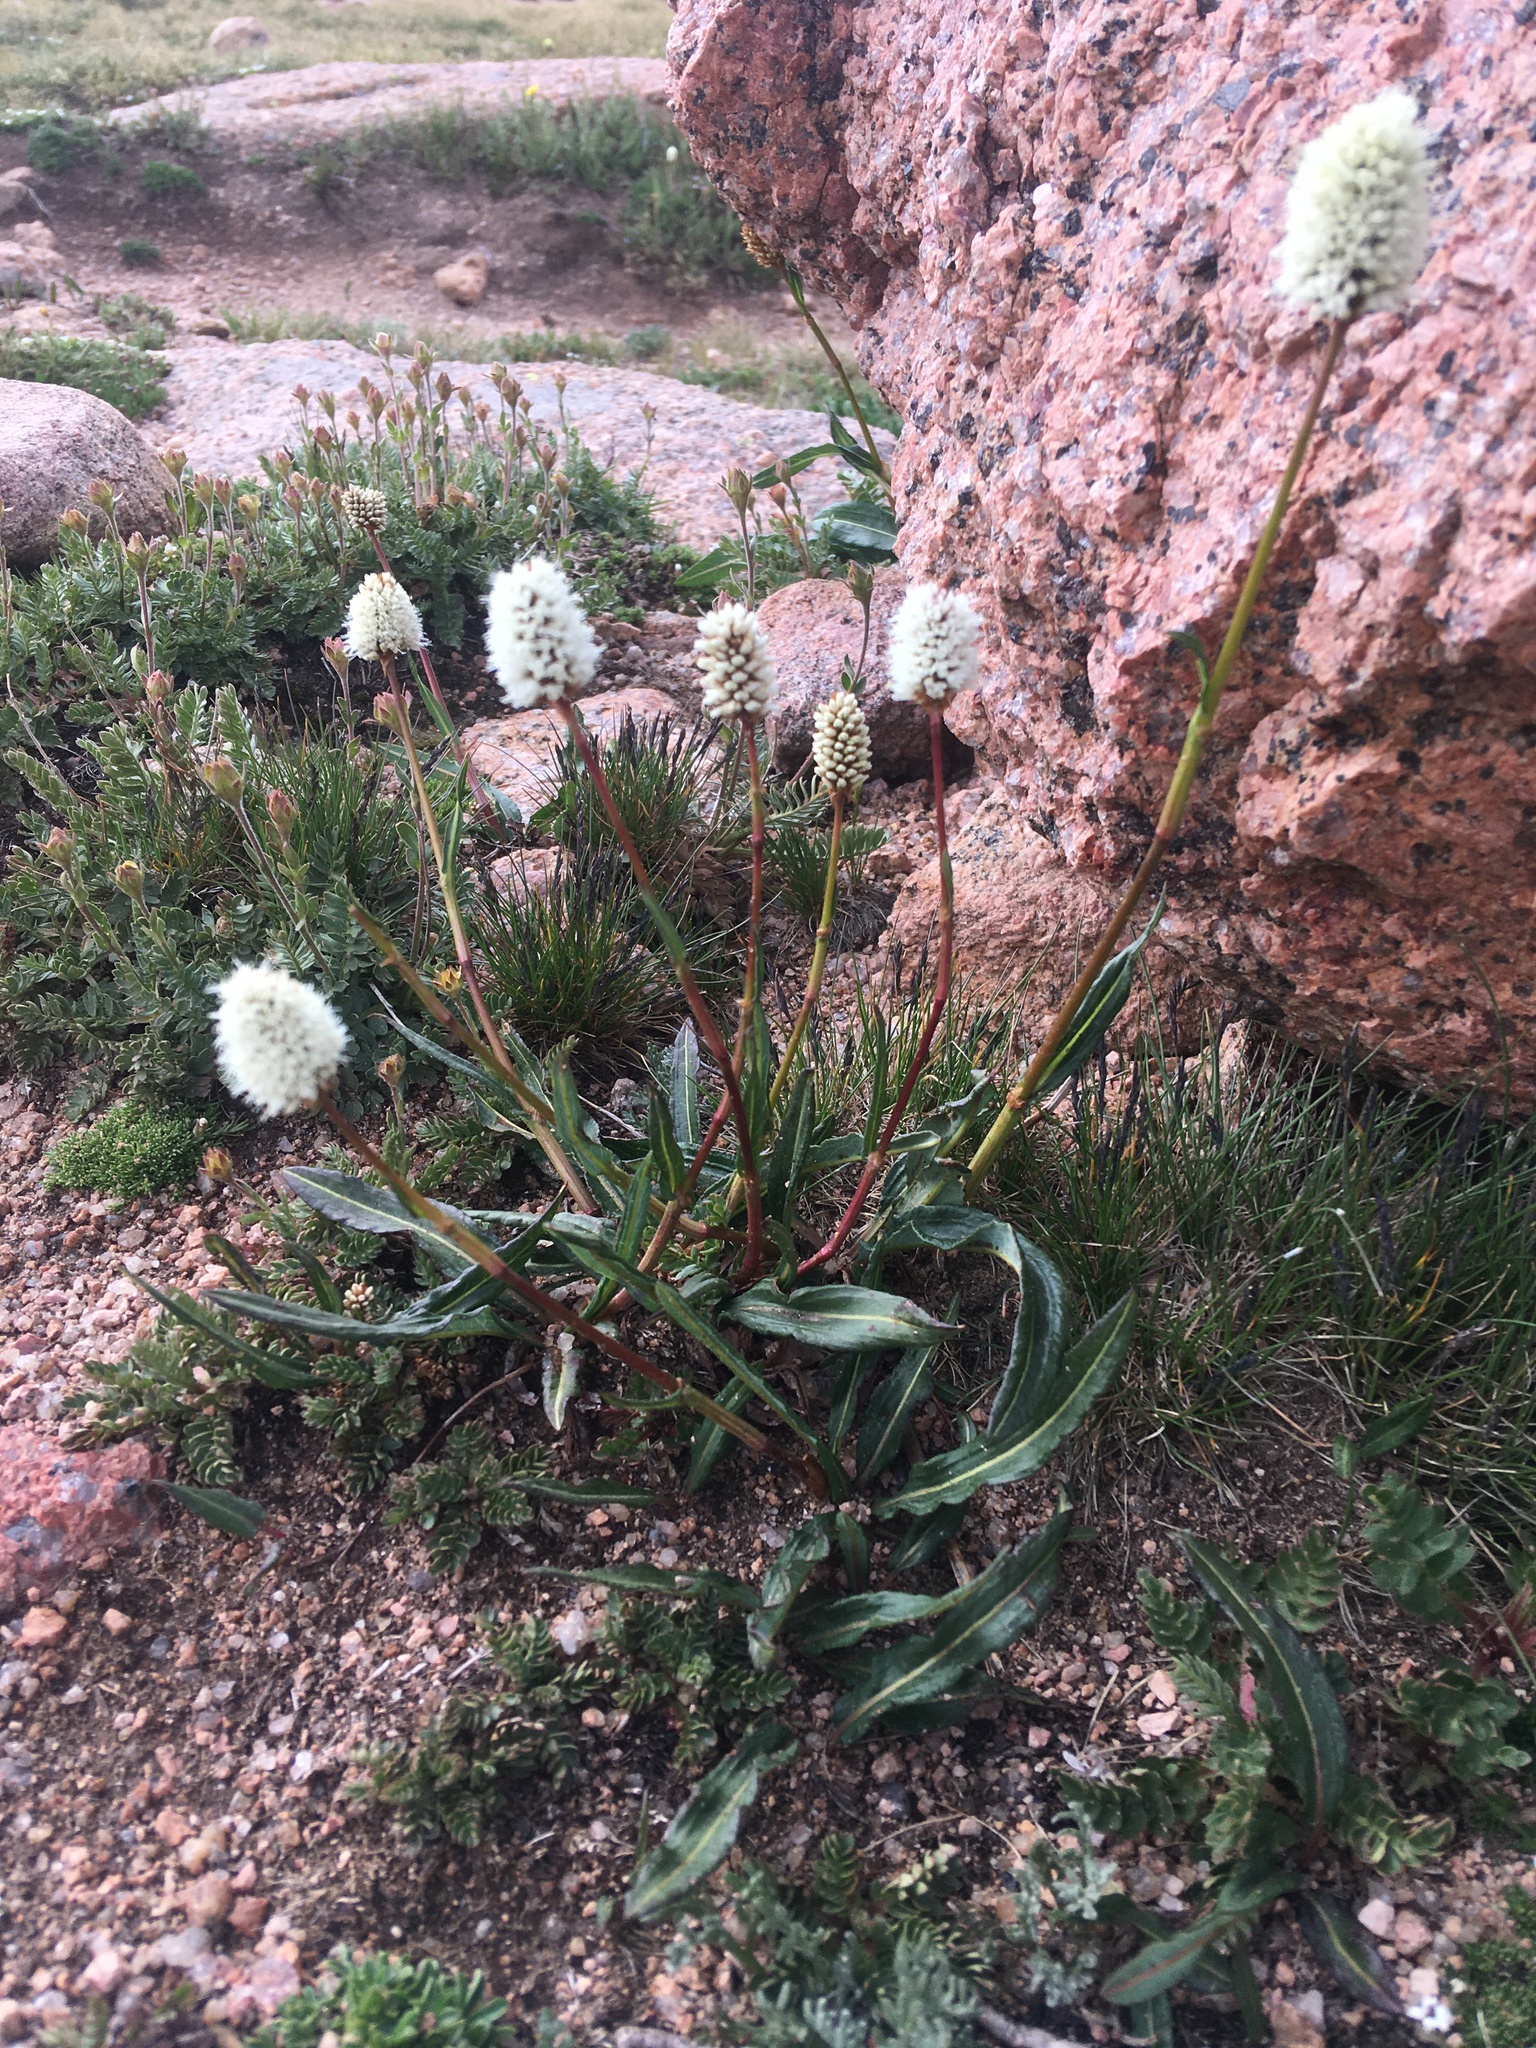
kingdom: Plantae
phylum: Tracheophyta
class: Magnoliopsida
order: Caryophyllales
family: Polygonaceae
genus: Bistorta
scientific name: Bistorta bistortoides
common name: American bistort
